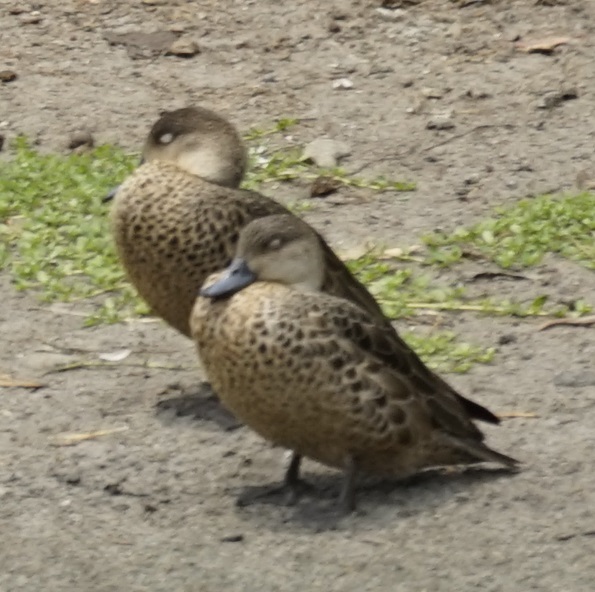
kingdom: Animalia
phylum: Chordata
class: Aves
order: Anseriformes
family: Anatidae
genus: Anas
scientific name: Anas gracilis
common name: Grey teal
